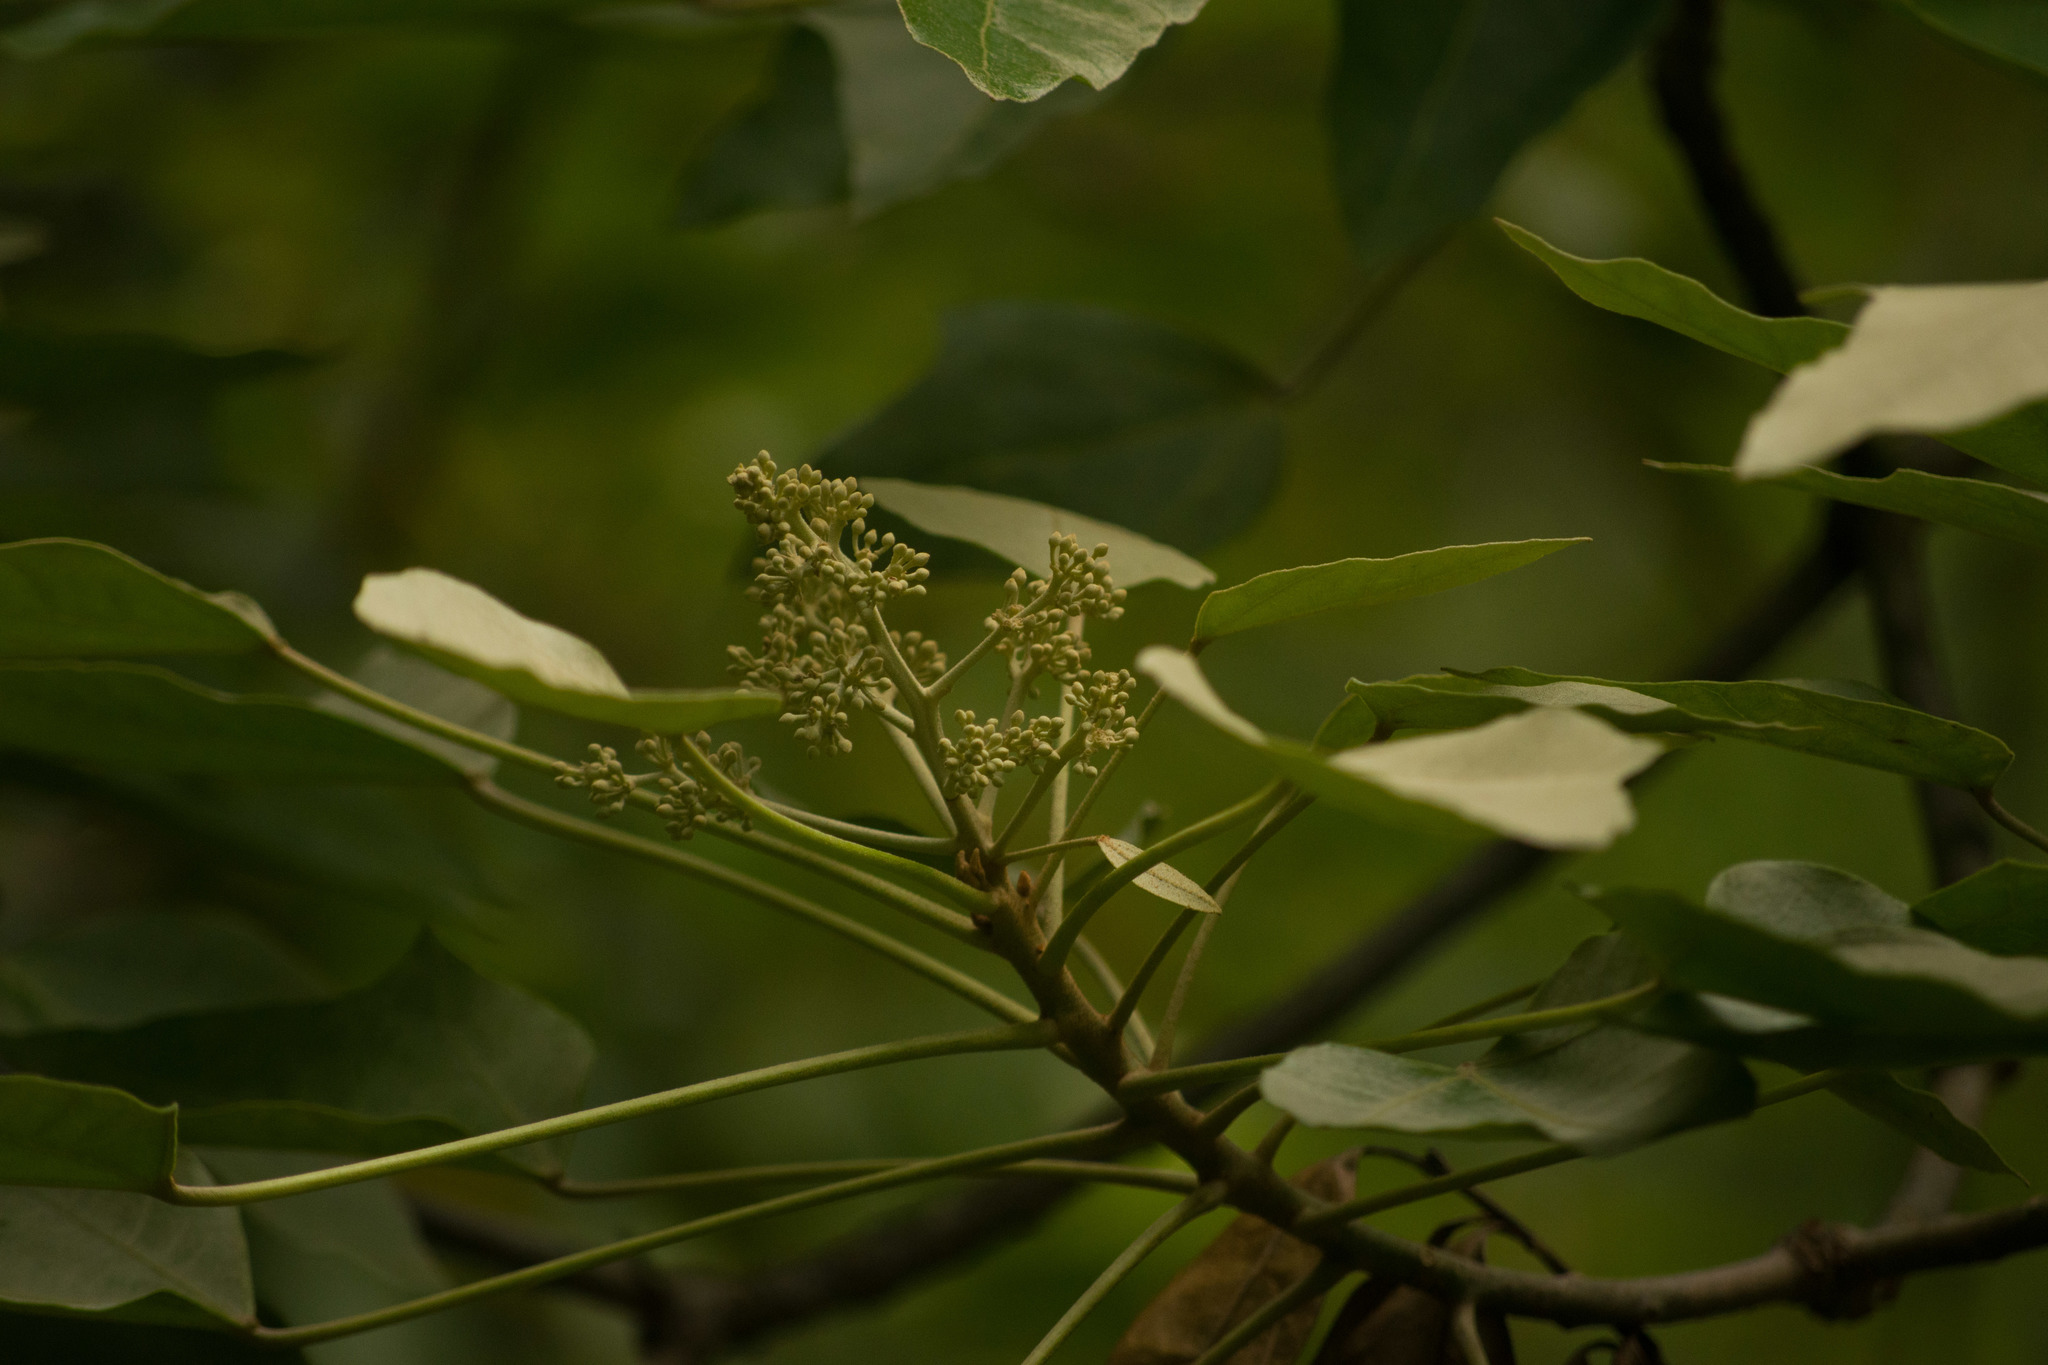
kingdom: Plantae
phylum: Tracheophyta
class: Magnoliopsida
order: Malpighiales
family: Euphorbiaceae
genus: Aleurites
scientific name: Aleurites moluccanus
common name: Candlenut tree
